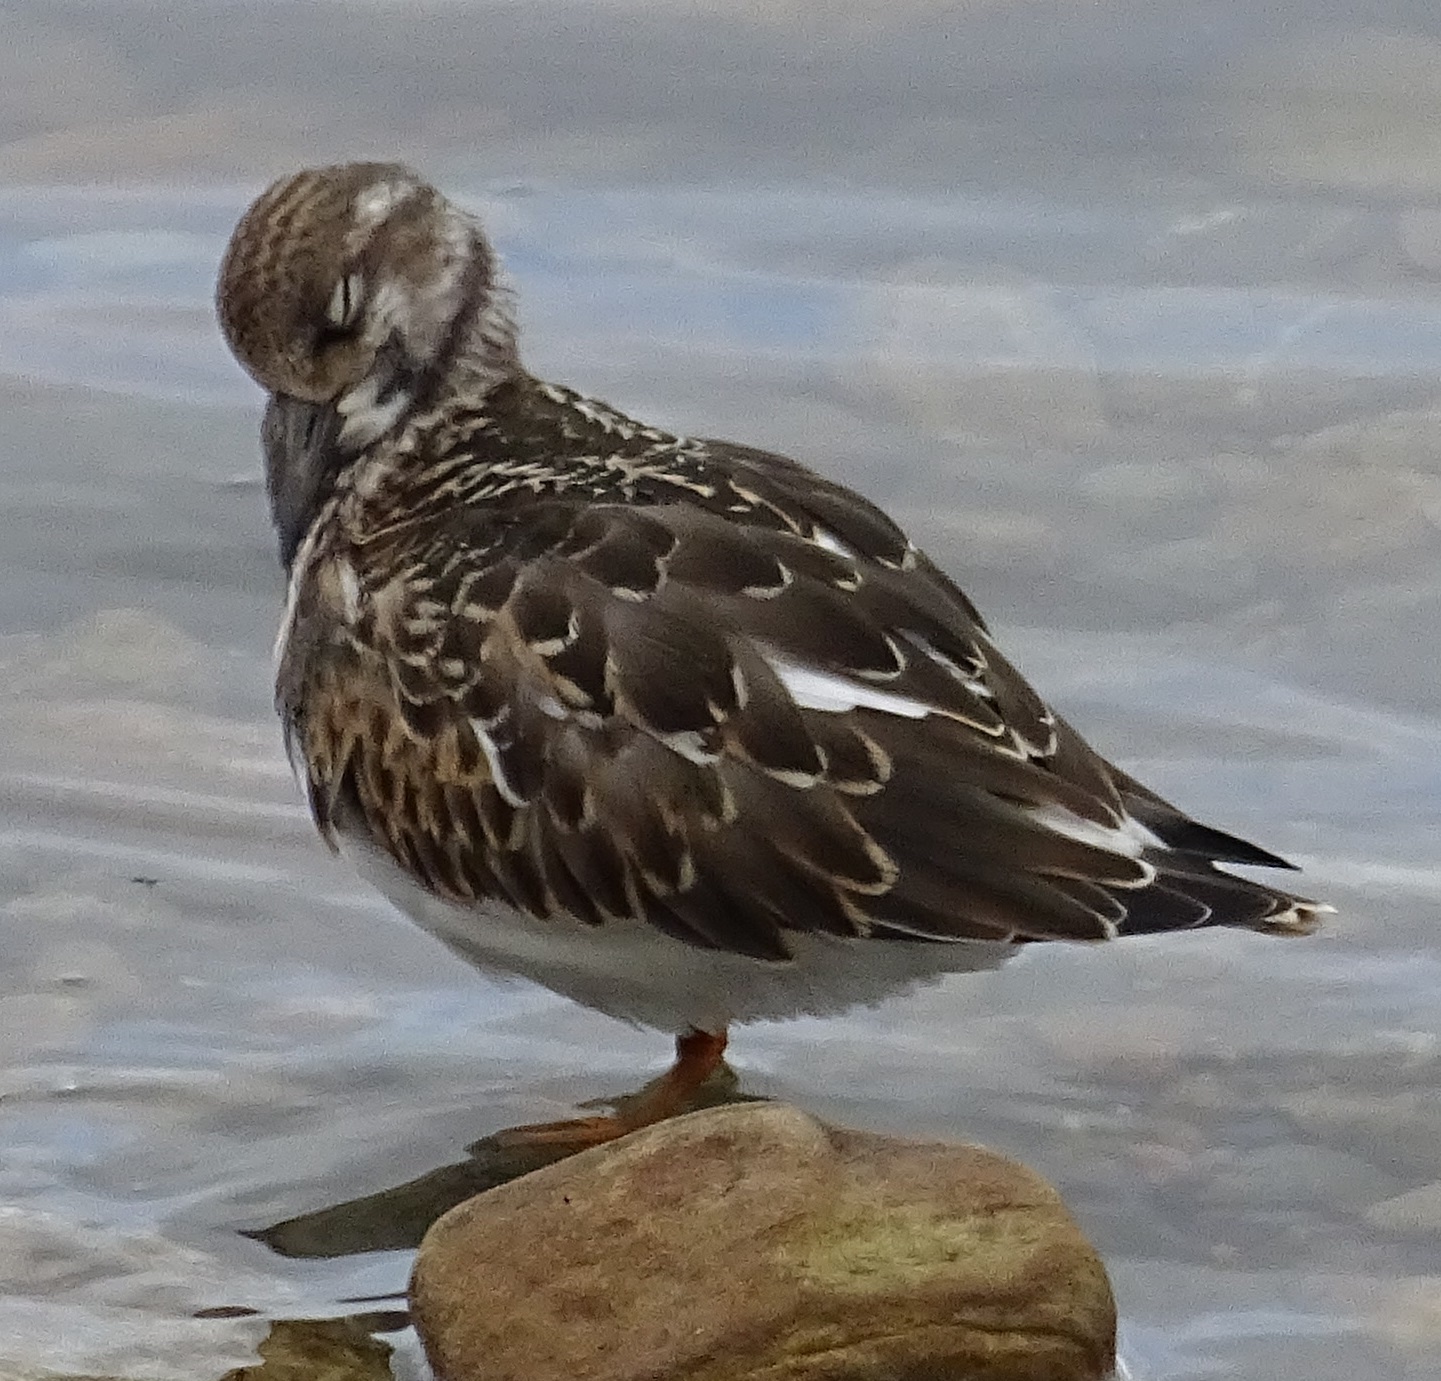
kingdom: Animalia
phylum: Chordata
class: Aves
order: Charadriiformes
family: Scolopacidae
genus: Arenaria
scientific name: Arenaria interpres
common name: Ruddy turnstone
